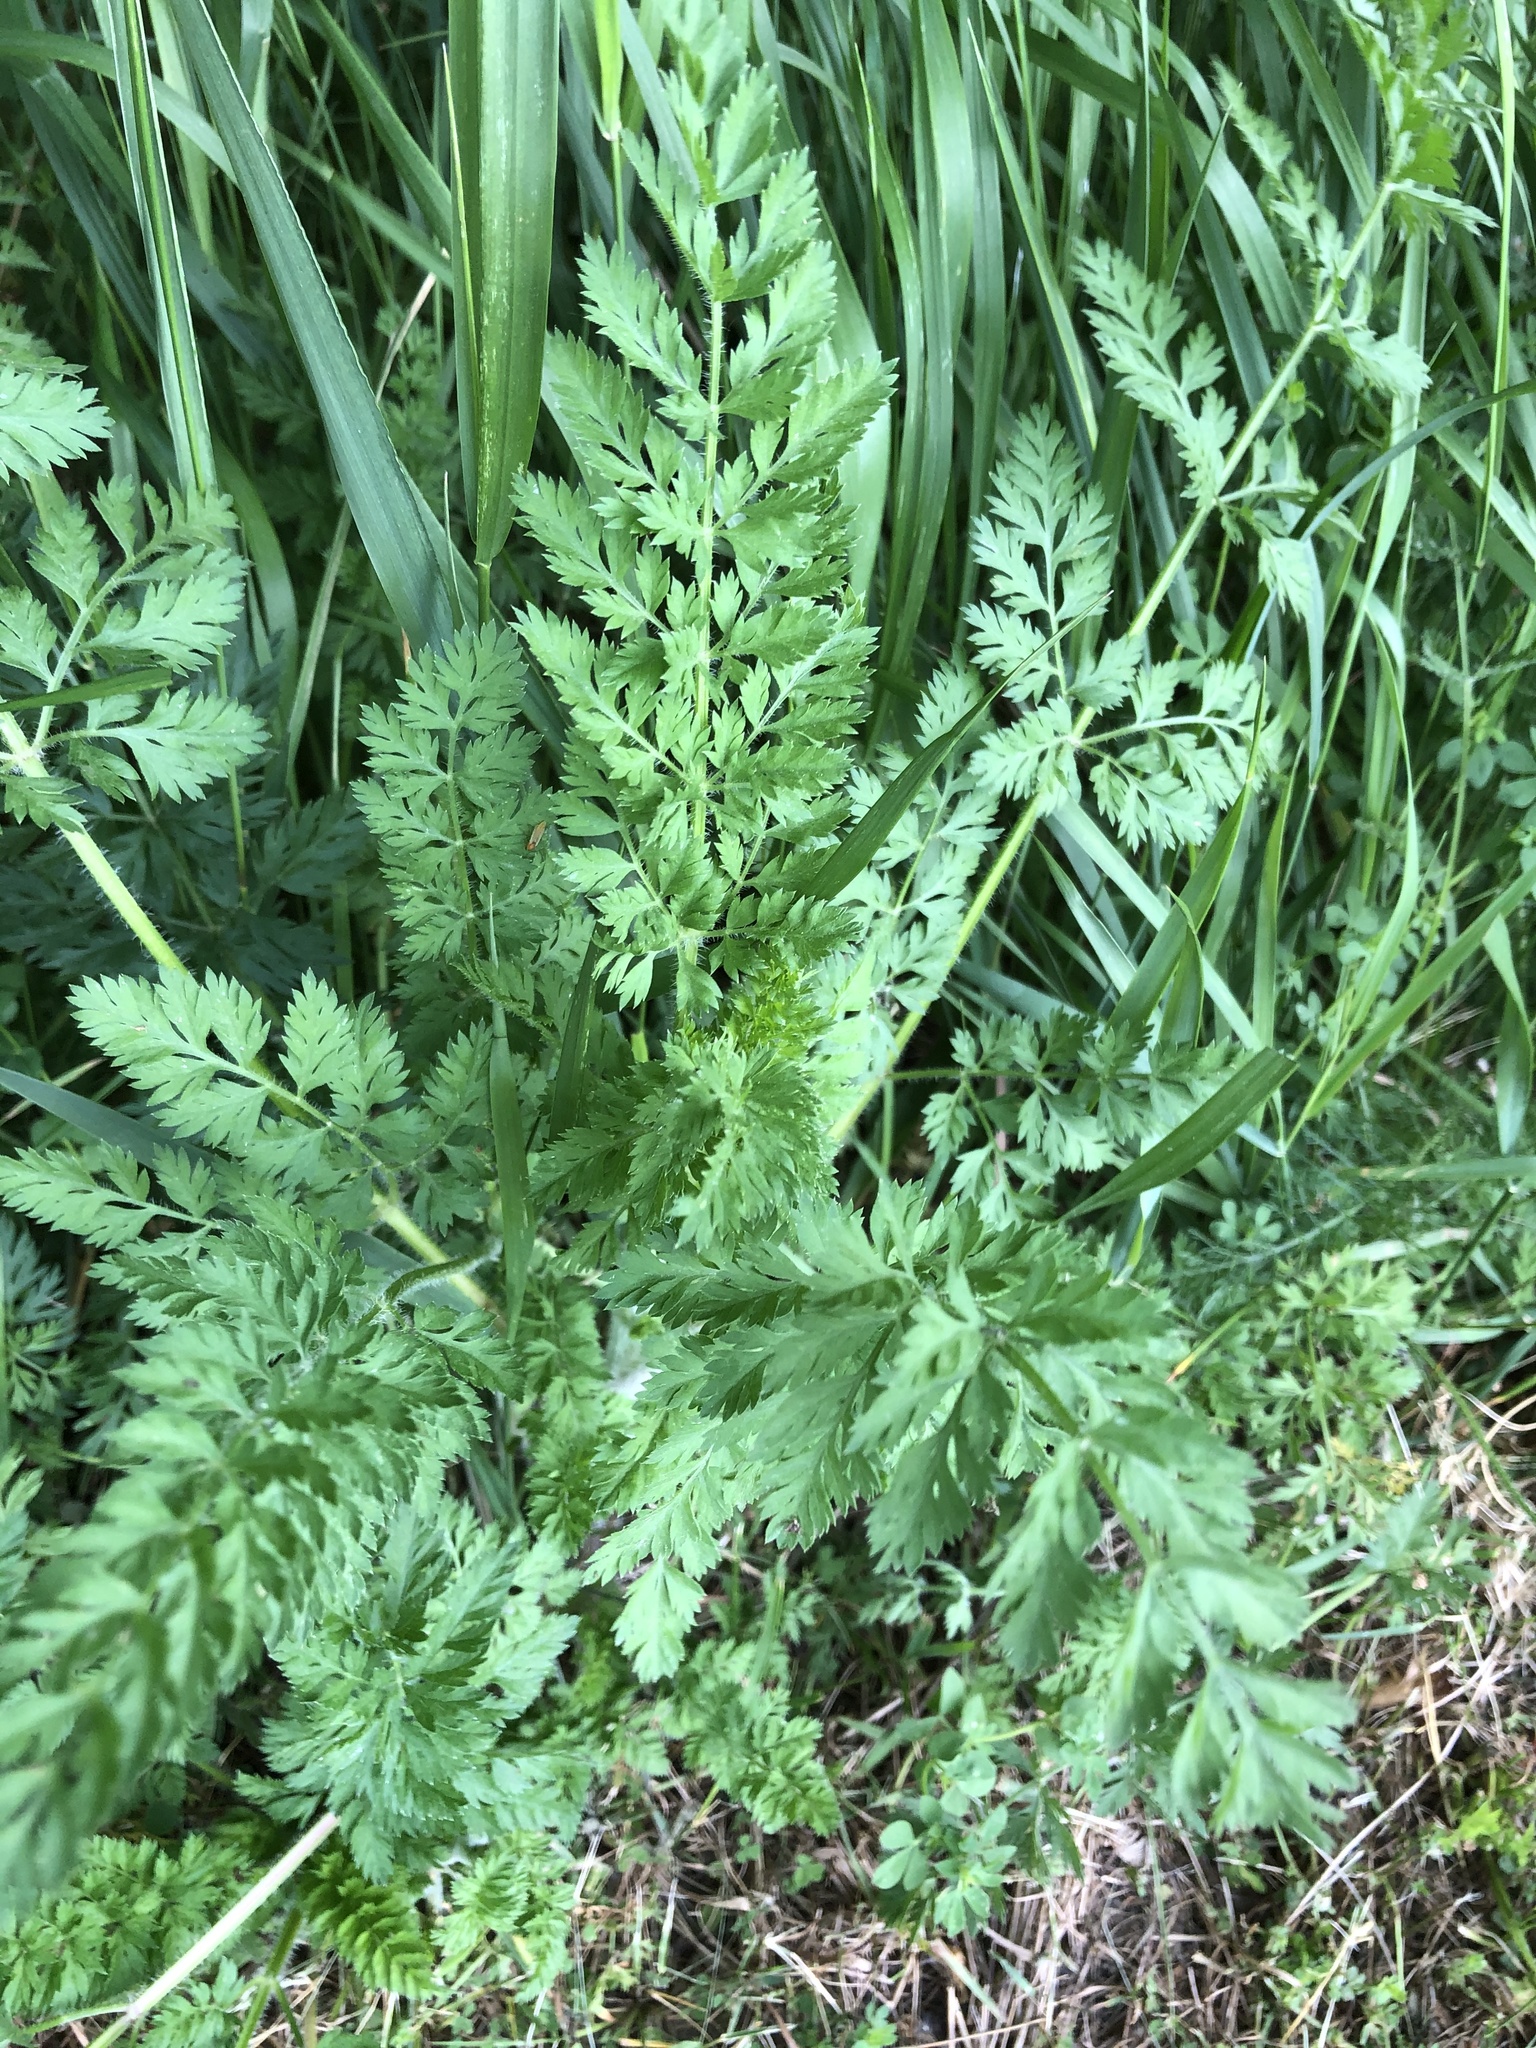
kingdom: Plantae
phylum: Tracheophyta
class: Magnoliopsida
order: Apiales
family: Apiaceae
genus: Daucus
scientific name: Daucus carota
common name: Wild carrot
